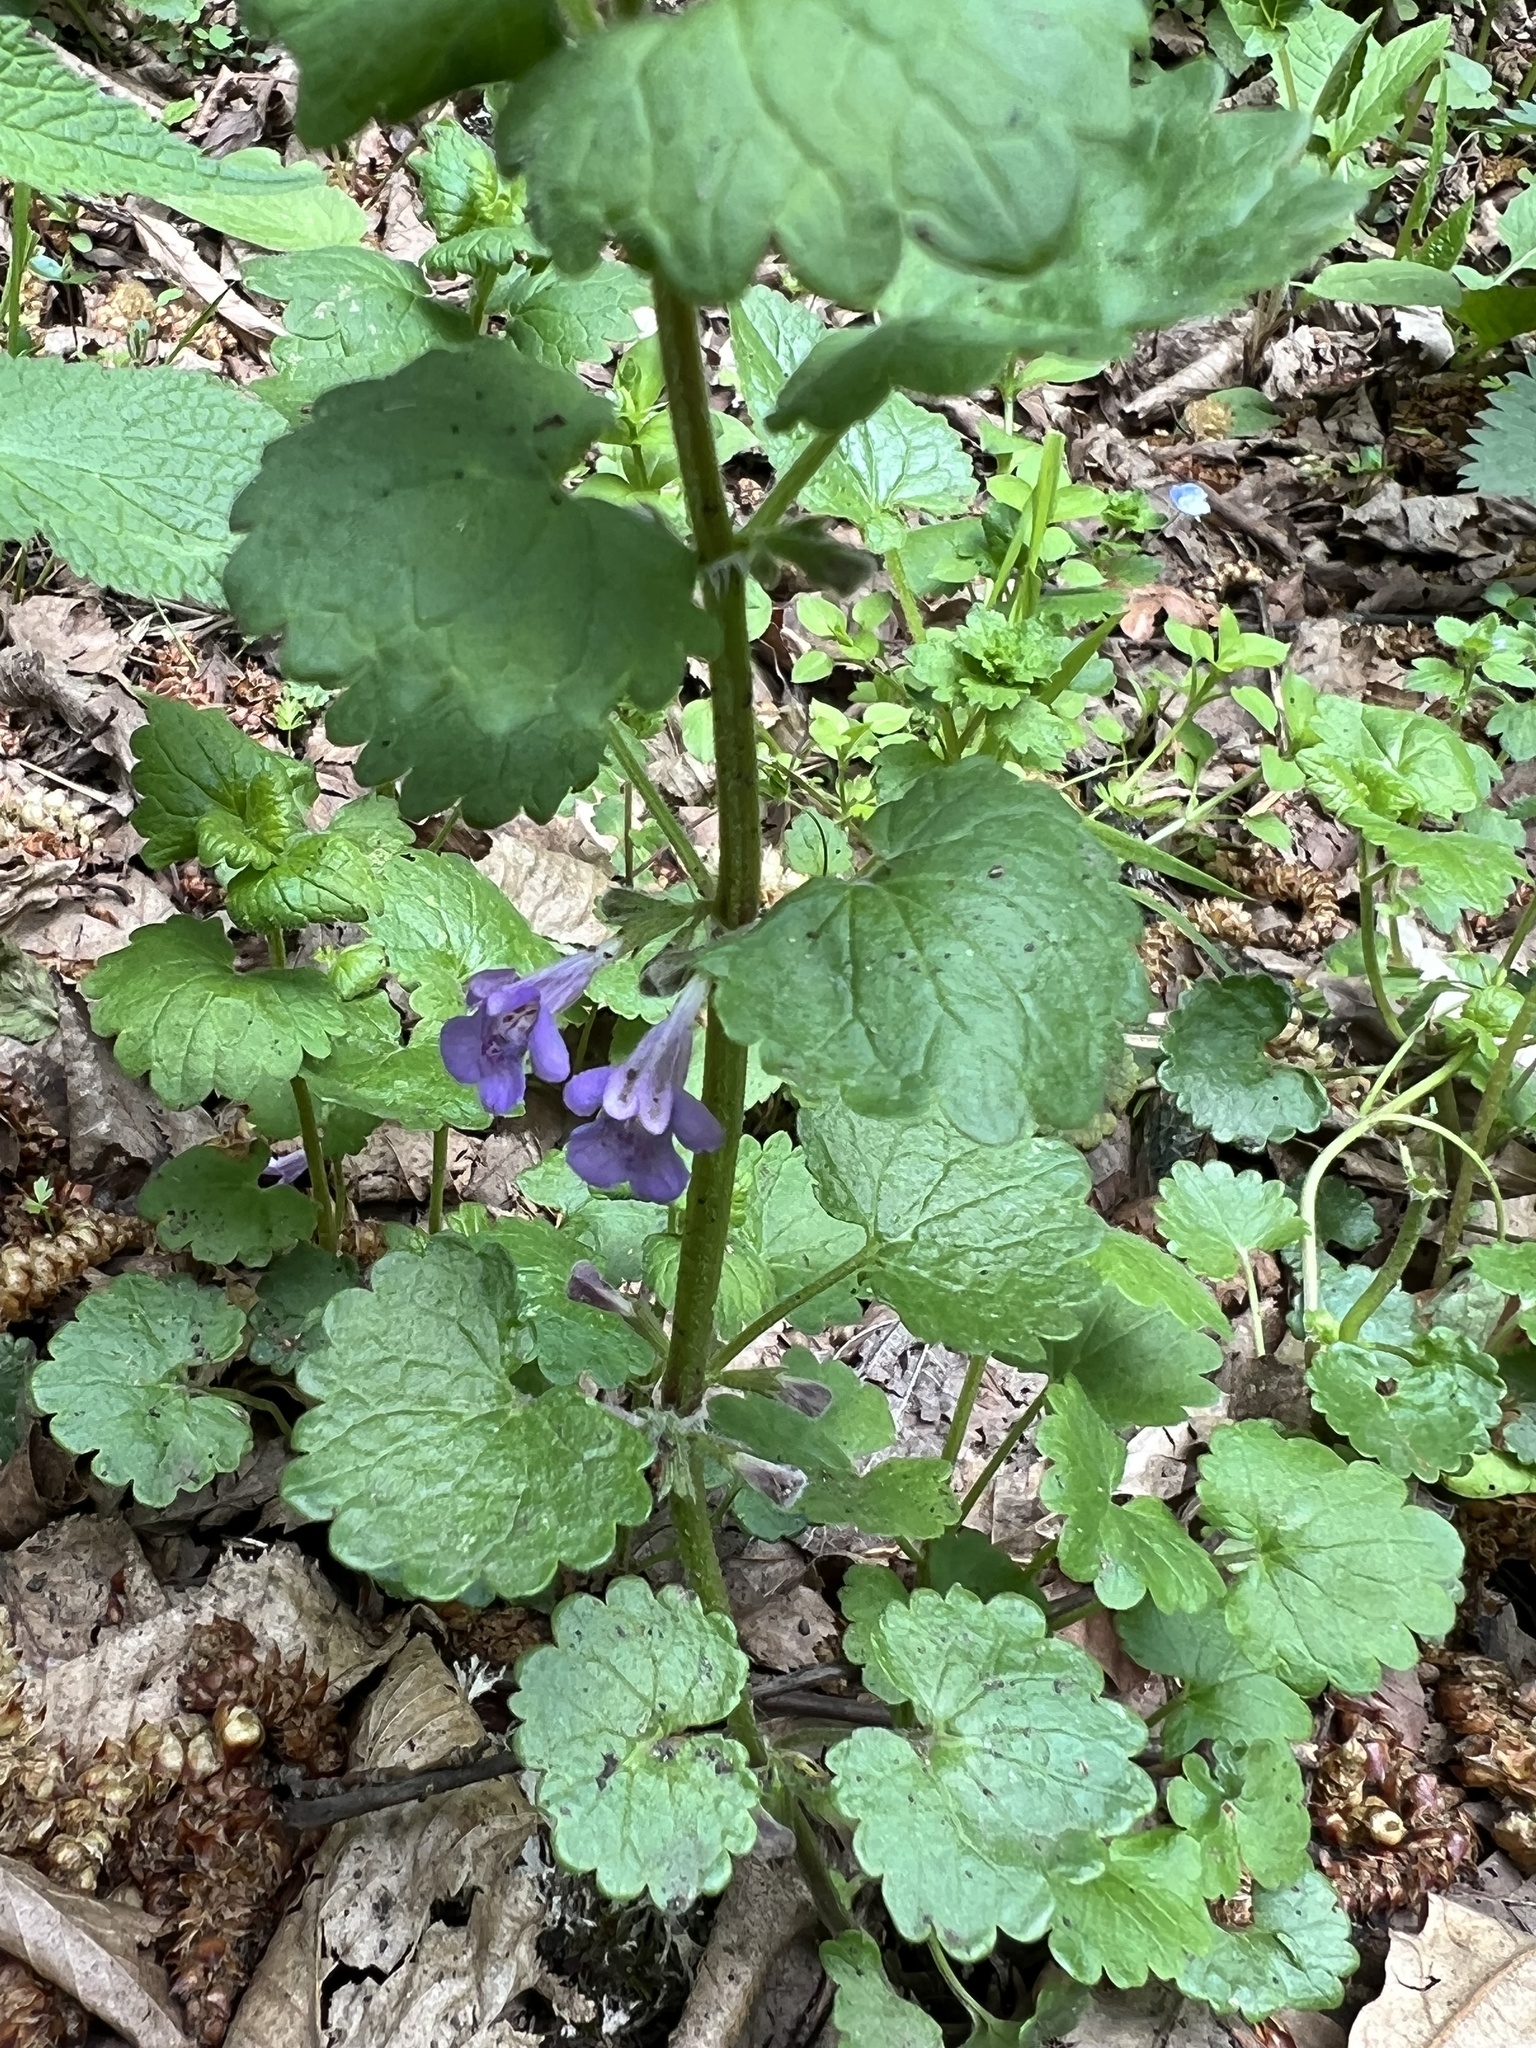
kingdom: Plantae
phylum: Tracheophyta
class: Magnoliopsida
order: Lamiales
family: Lamiaceae
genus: Glechoma
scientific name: Glechoma hederacea
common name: Ground ivy
